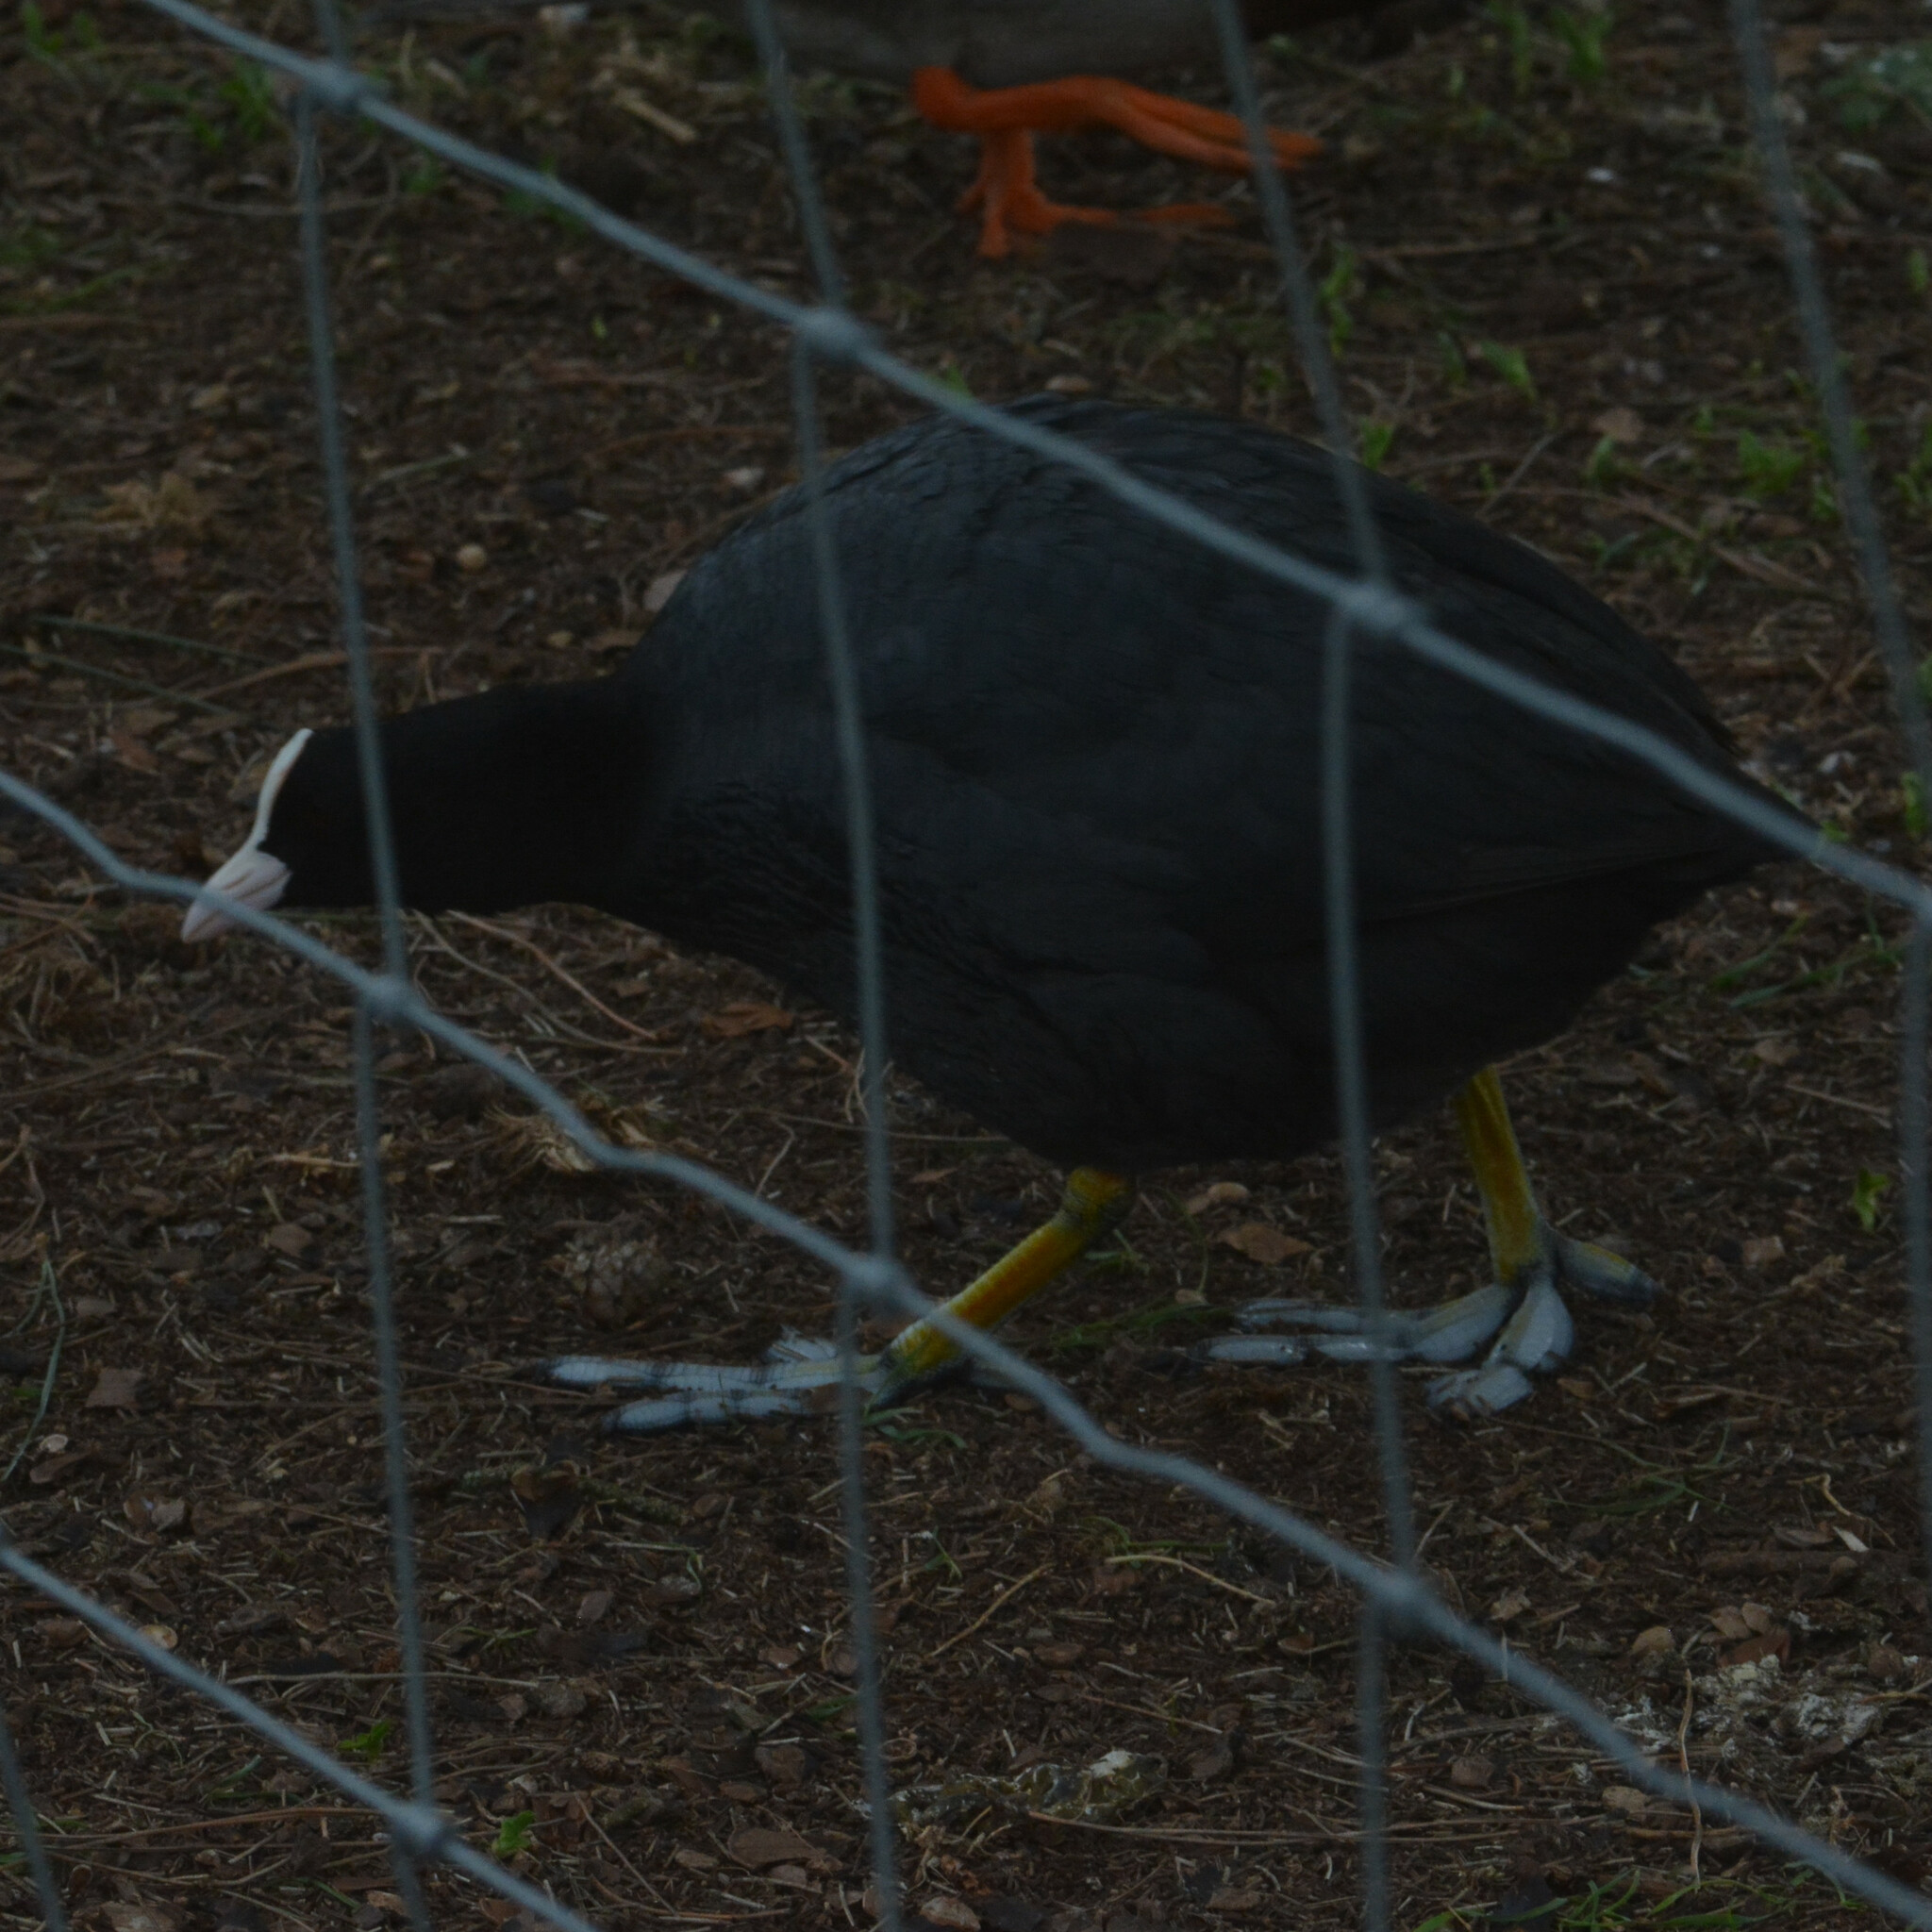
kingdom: Animalia
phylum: Chordata
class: Aves
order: Gruiformes
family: Rallidae
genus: Fulica
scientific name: Fulica atra
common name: Eurasian coot
